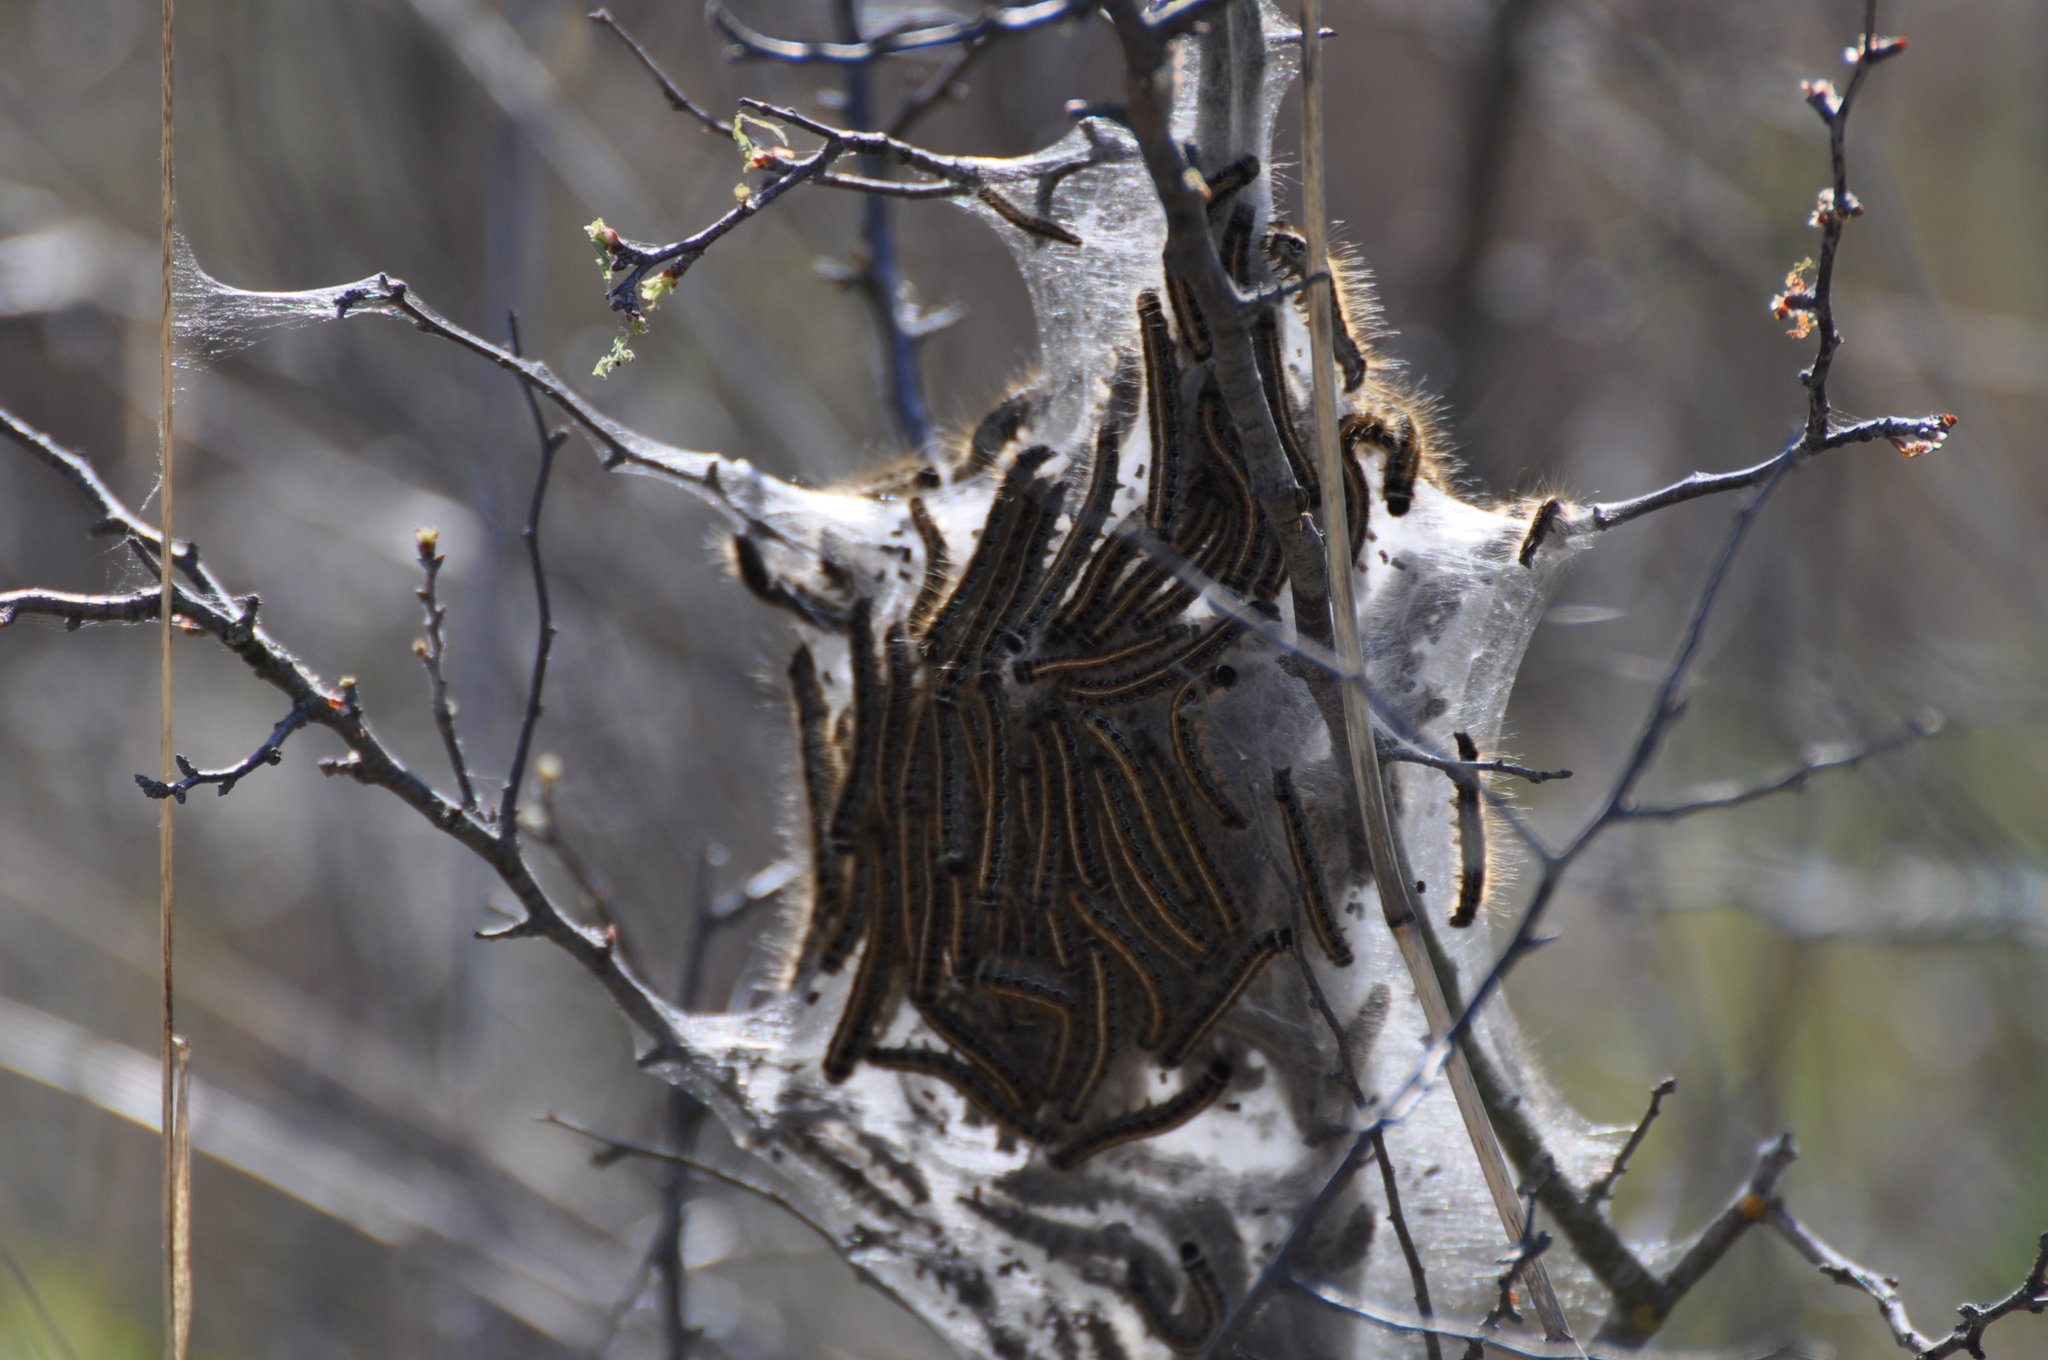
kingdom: Animalia
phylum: Arthropoda
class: Insecta
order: Lepidoptera
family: Lasiocampidae
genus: Malacosoma
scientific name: Malacosoma americana
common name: Eastern tent caterpillar moth
